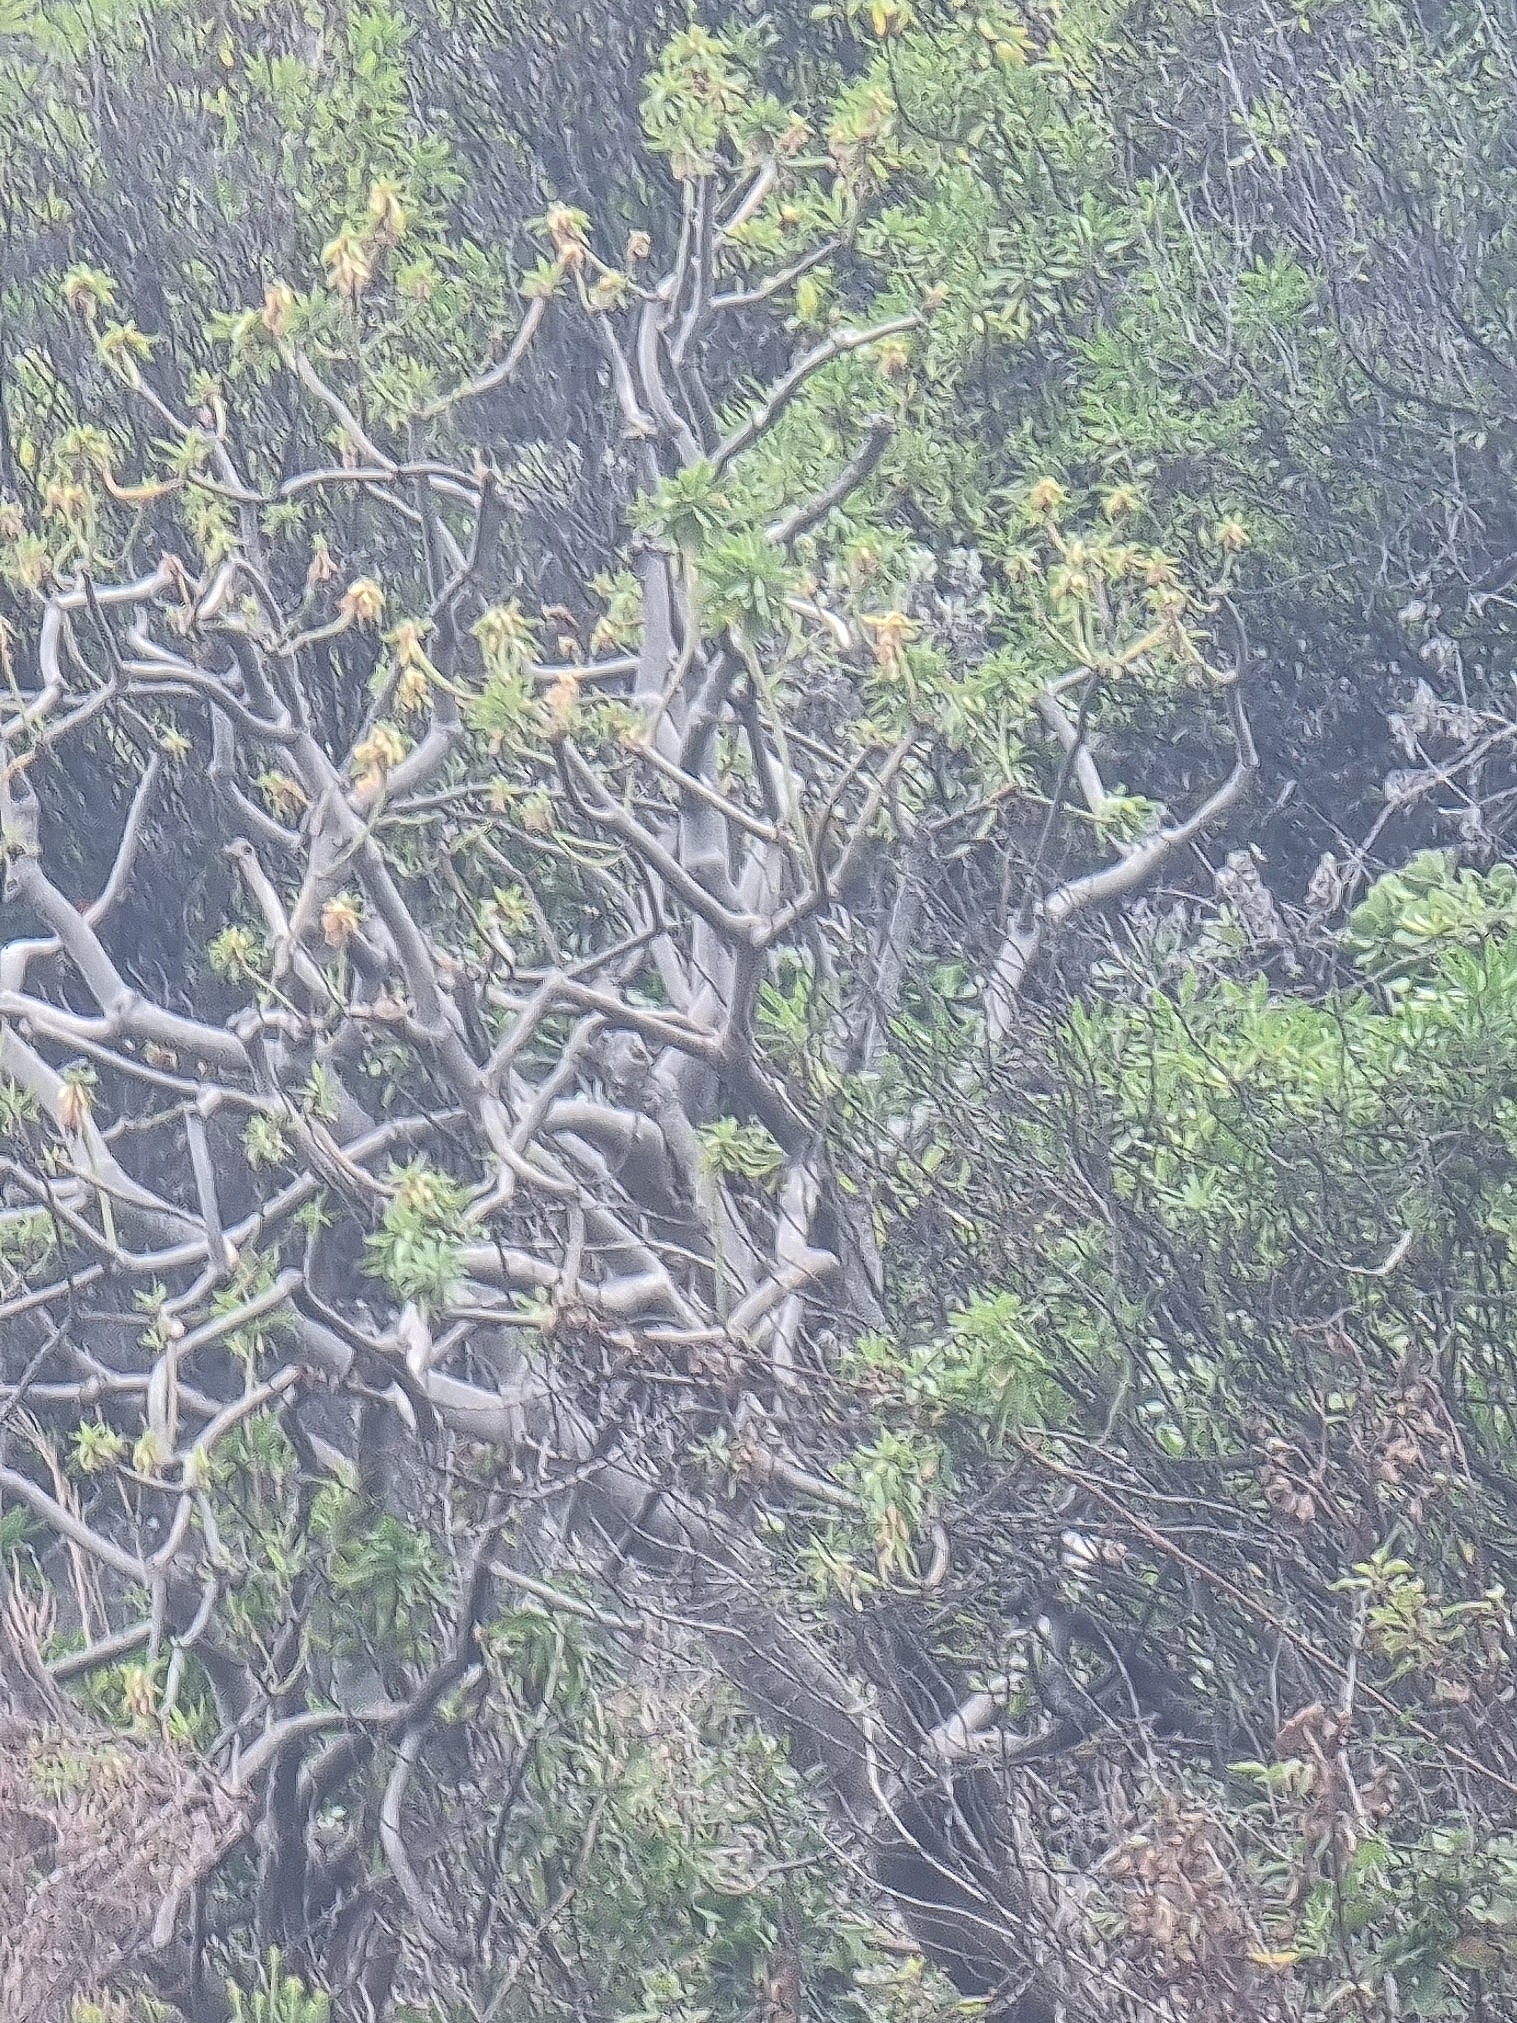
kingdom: Plantae
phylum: Tracheophyta
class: Magnoliopsida
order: Malpighiales
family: Euphorbiaceae
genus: Euphorbia
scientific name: Euphorbia piscatoria
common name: Fish-stunning spurge
